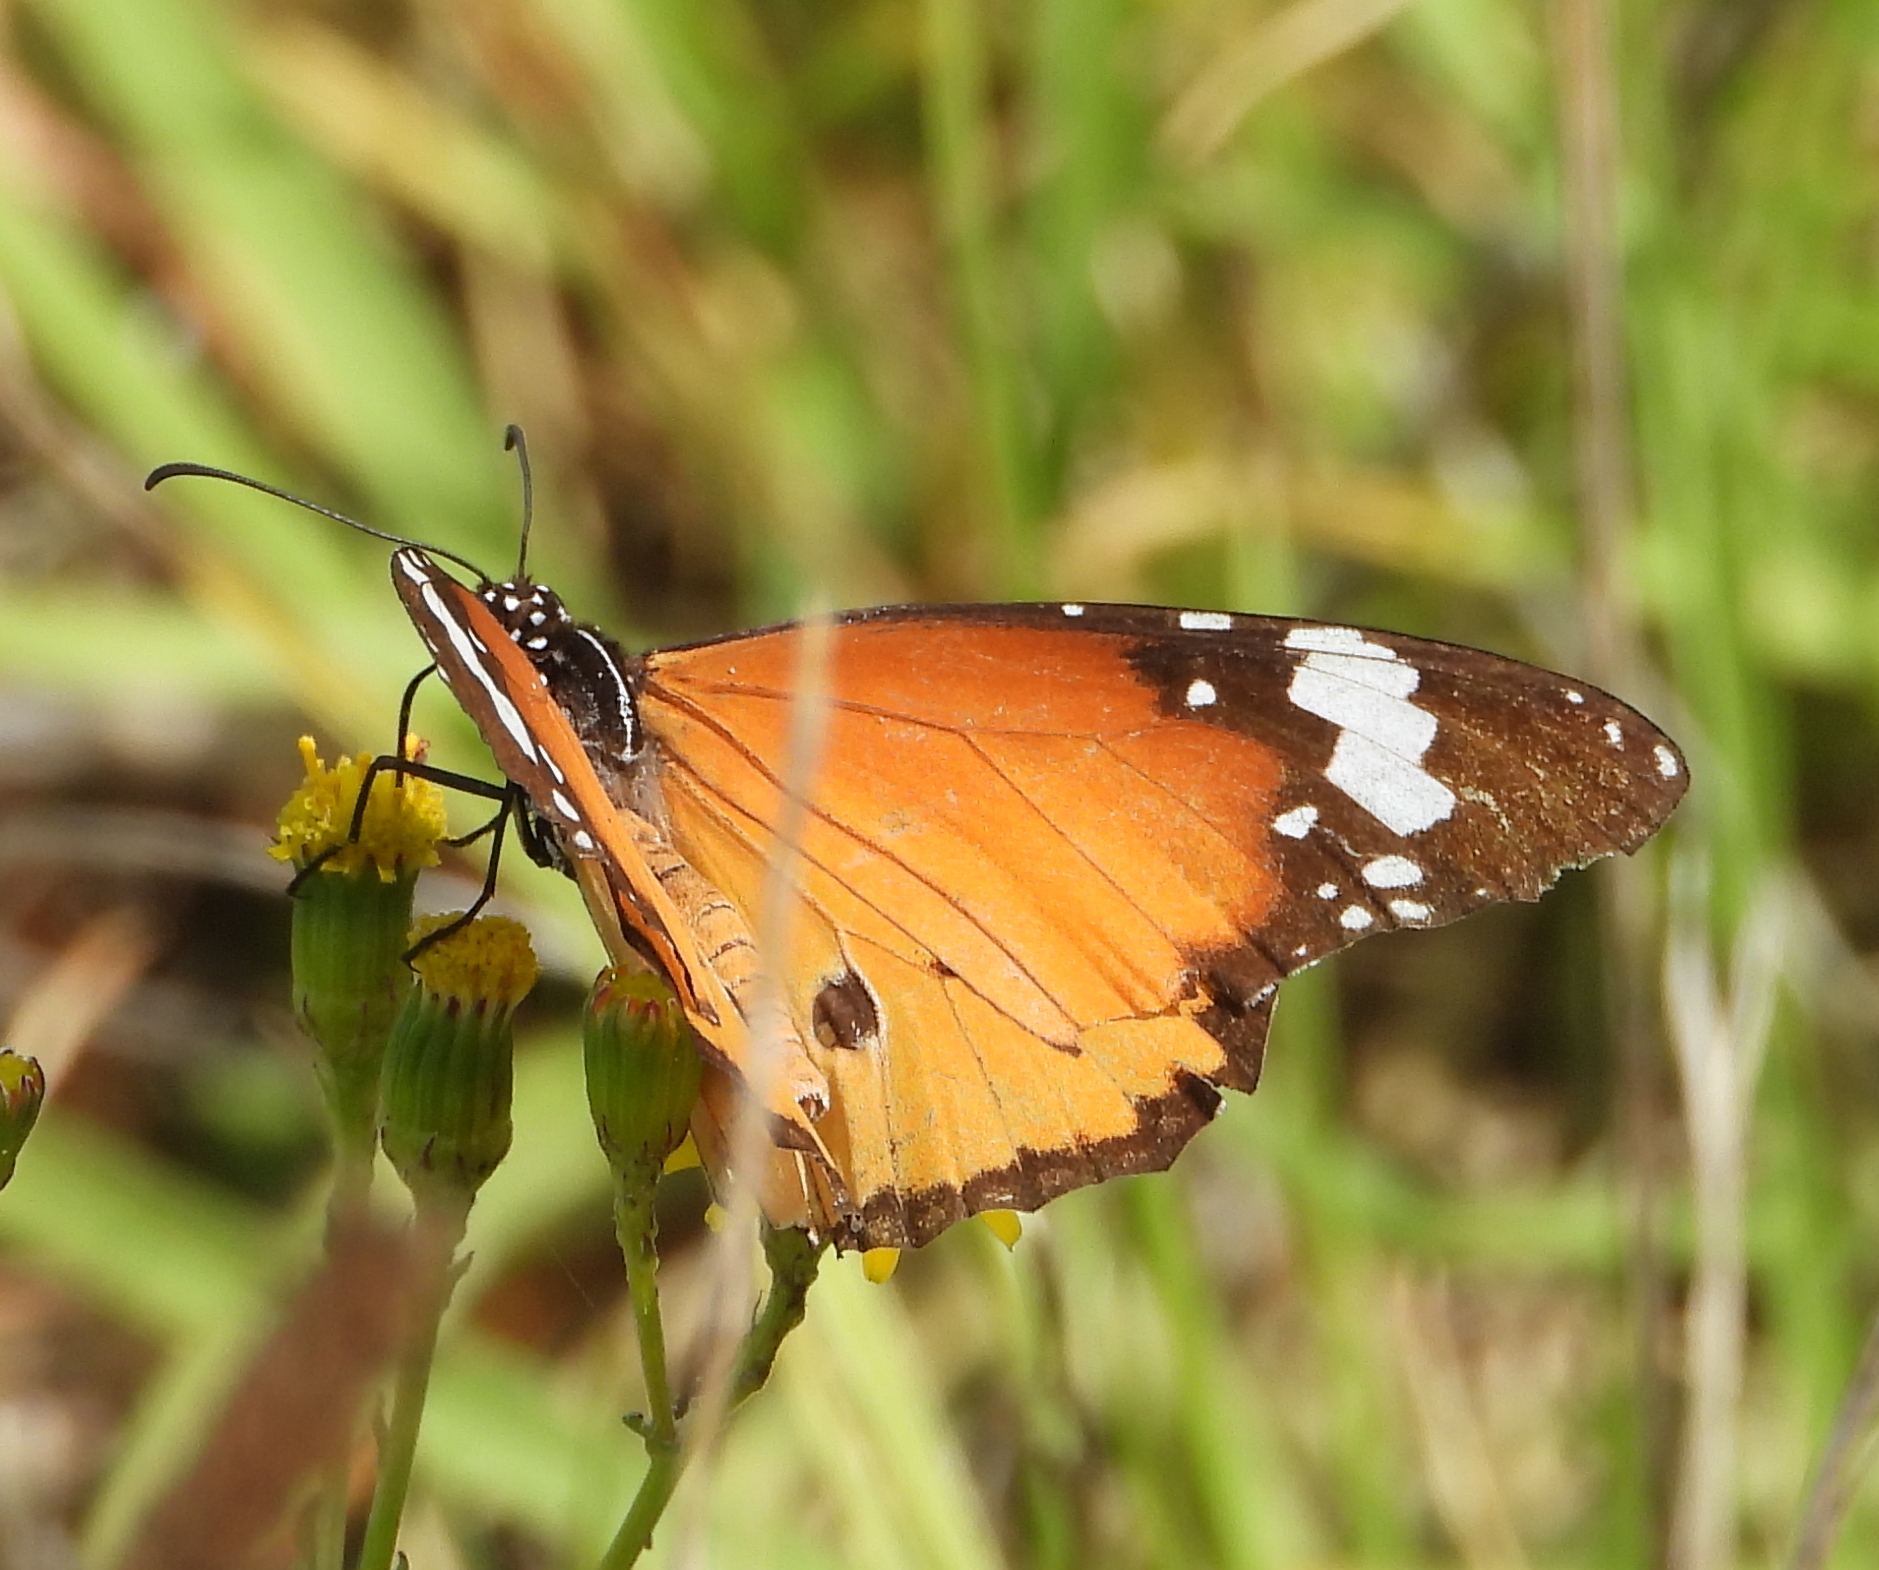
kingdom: Animalia
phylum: Arthropoda
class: Insecta
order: Lepidoptera
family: Nymphalidae
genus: Danaus
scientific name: Danaus chrysippus
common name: Plain tiger
